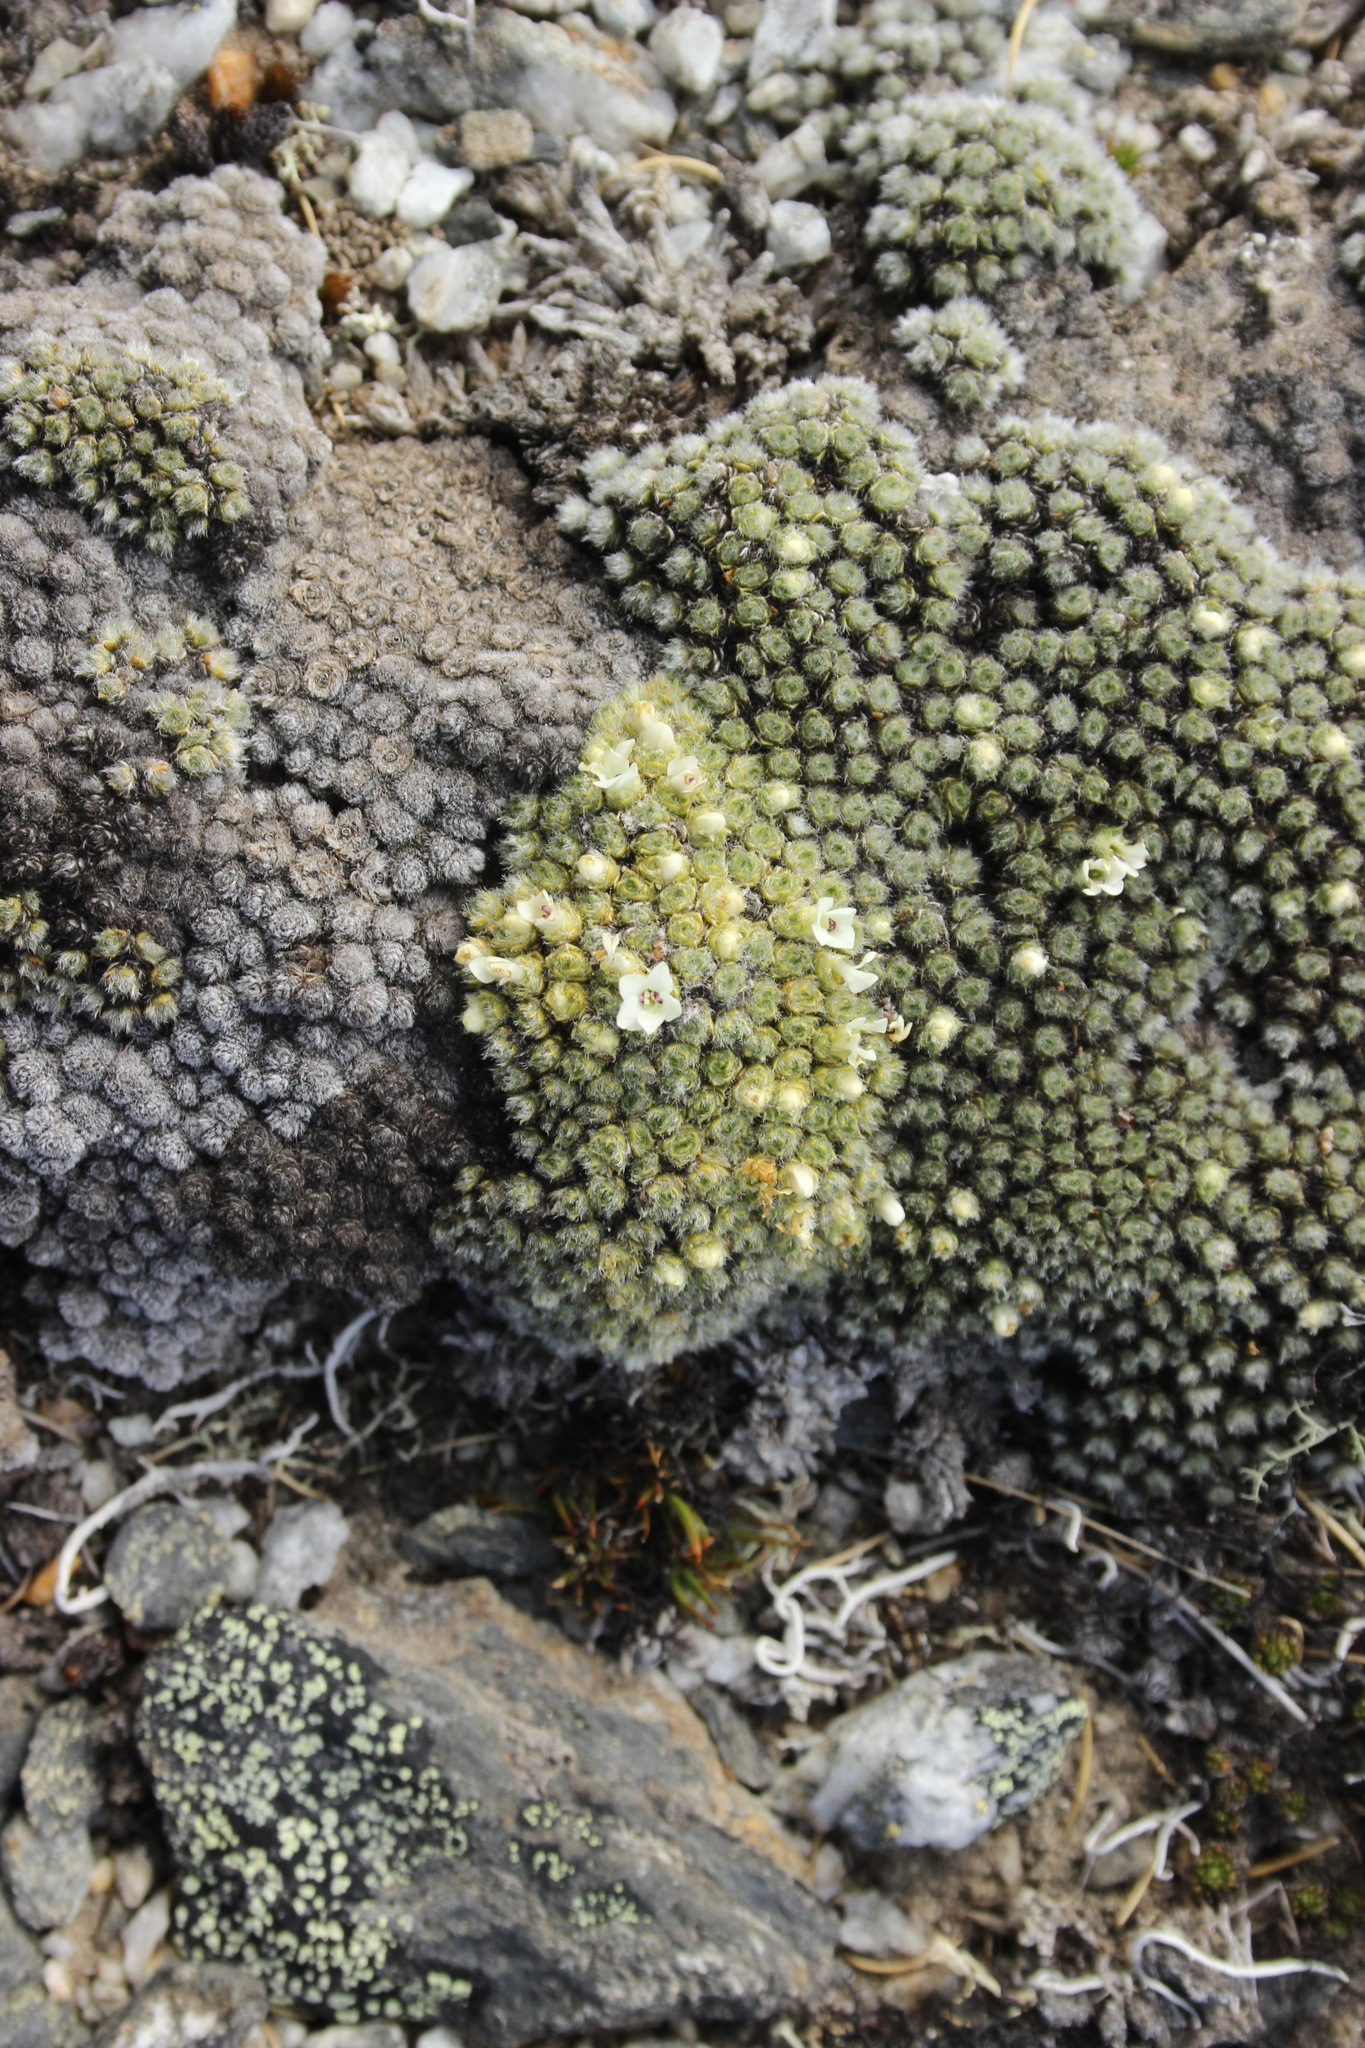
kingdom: Plantae
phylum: Tracheophyta
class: Magnoliopsida
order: Lamiales
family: Plantaginaceae
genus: Veronica
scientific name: Veronica thomsonii
